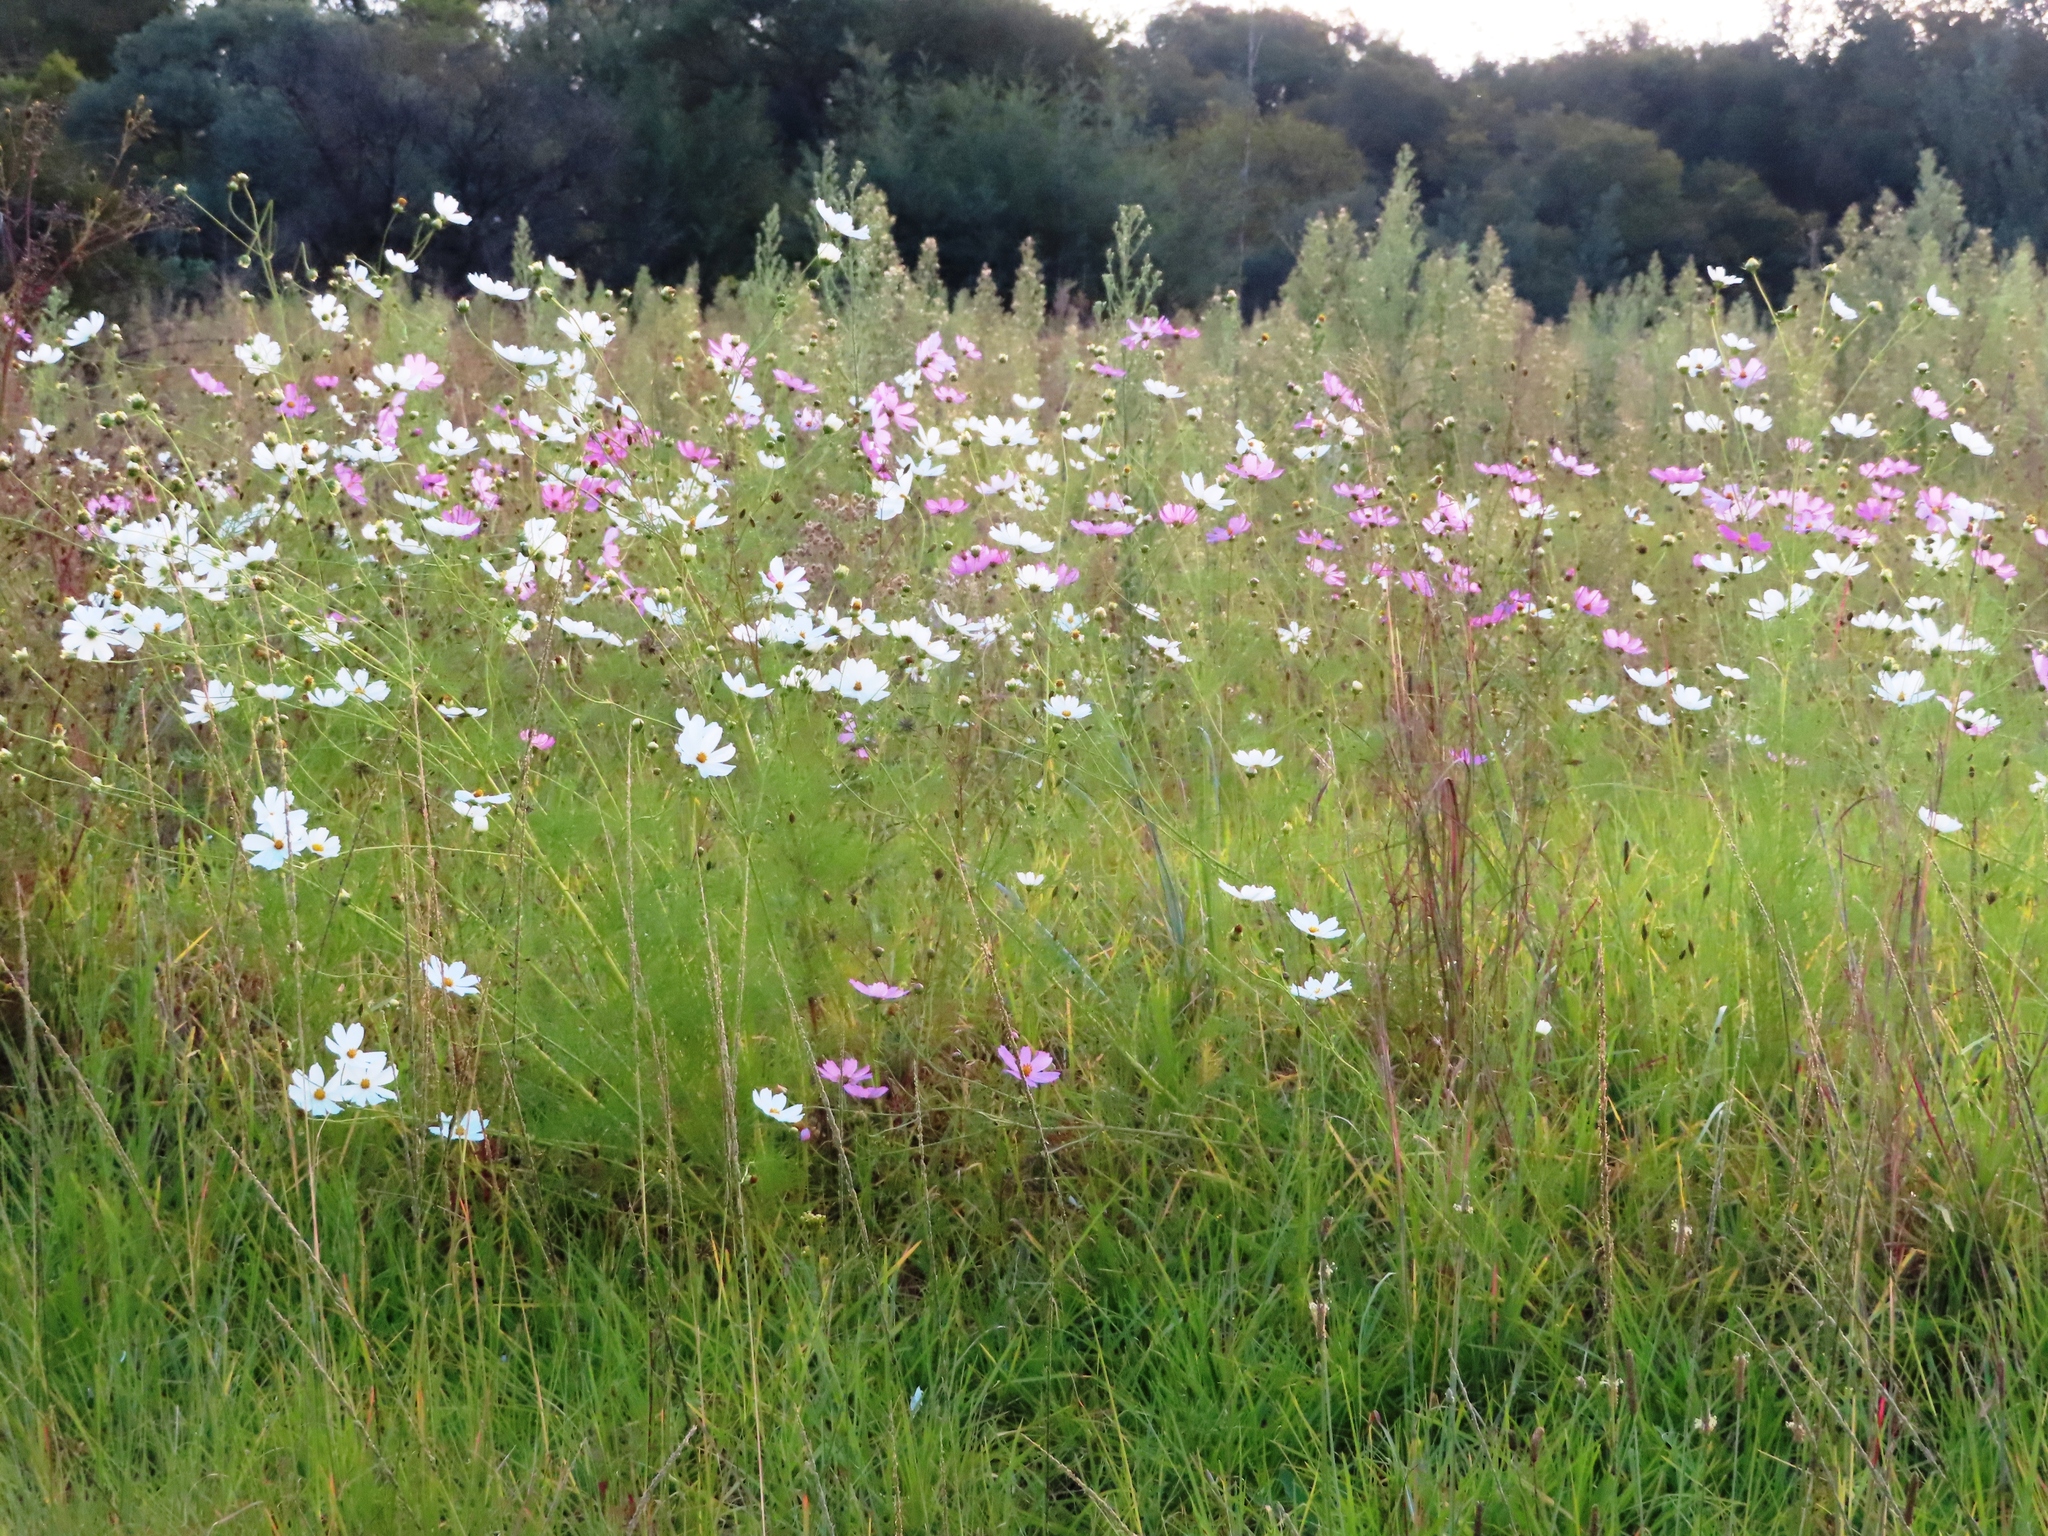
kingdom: Plantae
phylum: Tracheophyta
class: Magnoliopsida
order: Asterales
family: Asteraceae
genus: Cosmos
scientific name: Cosmos bipinnatus
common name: Garden cosmos
